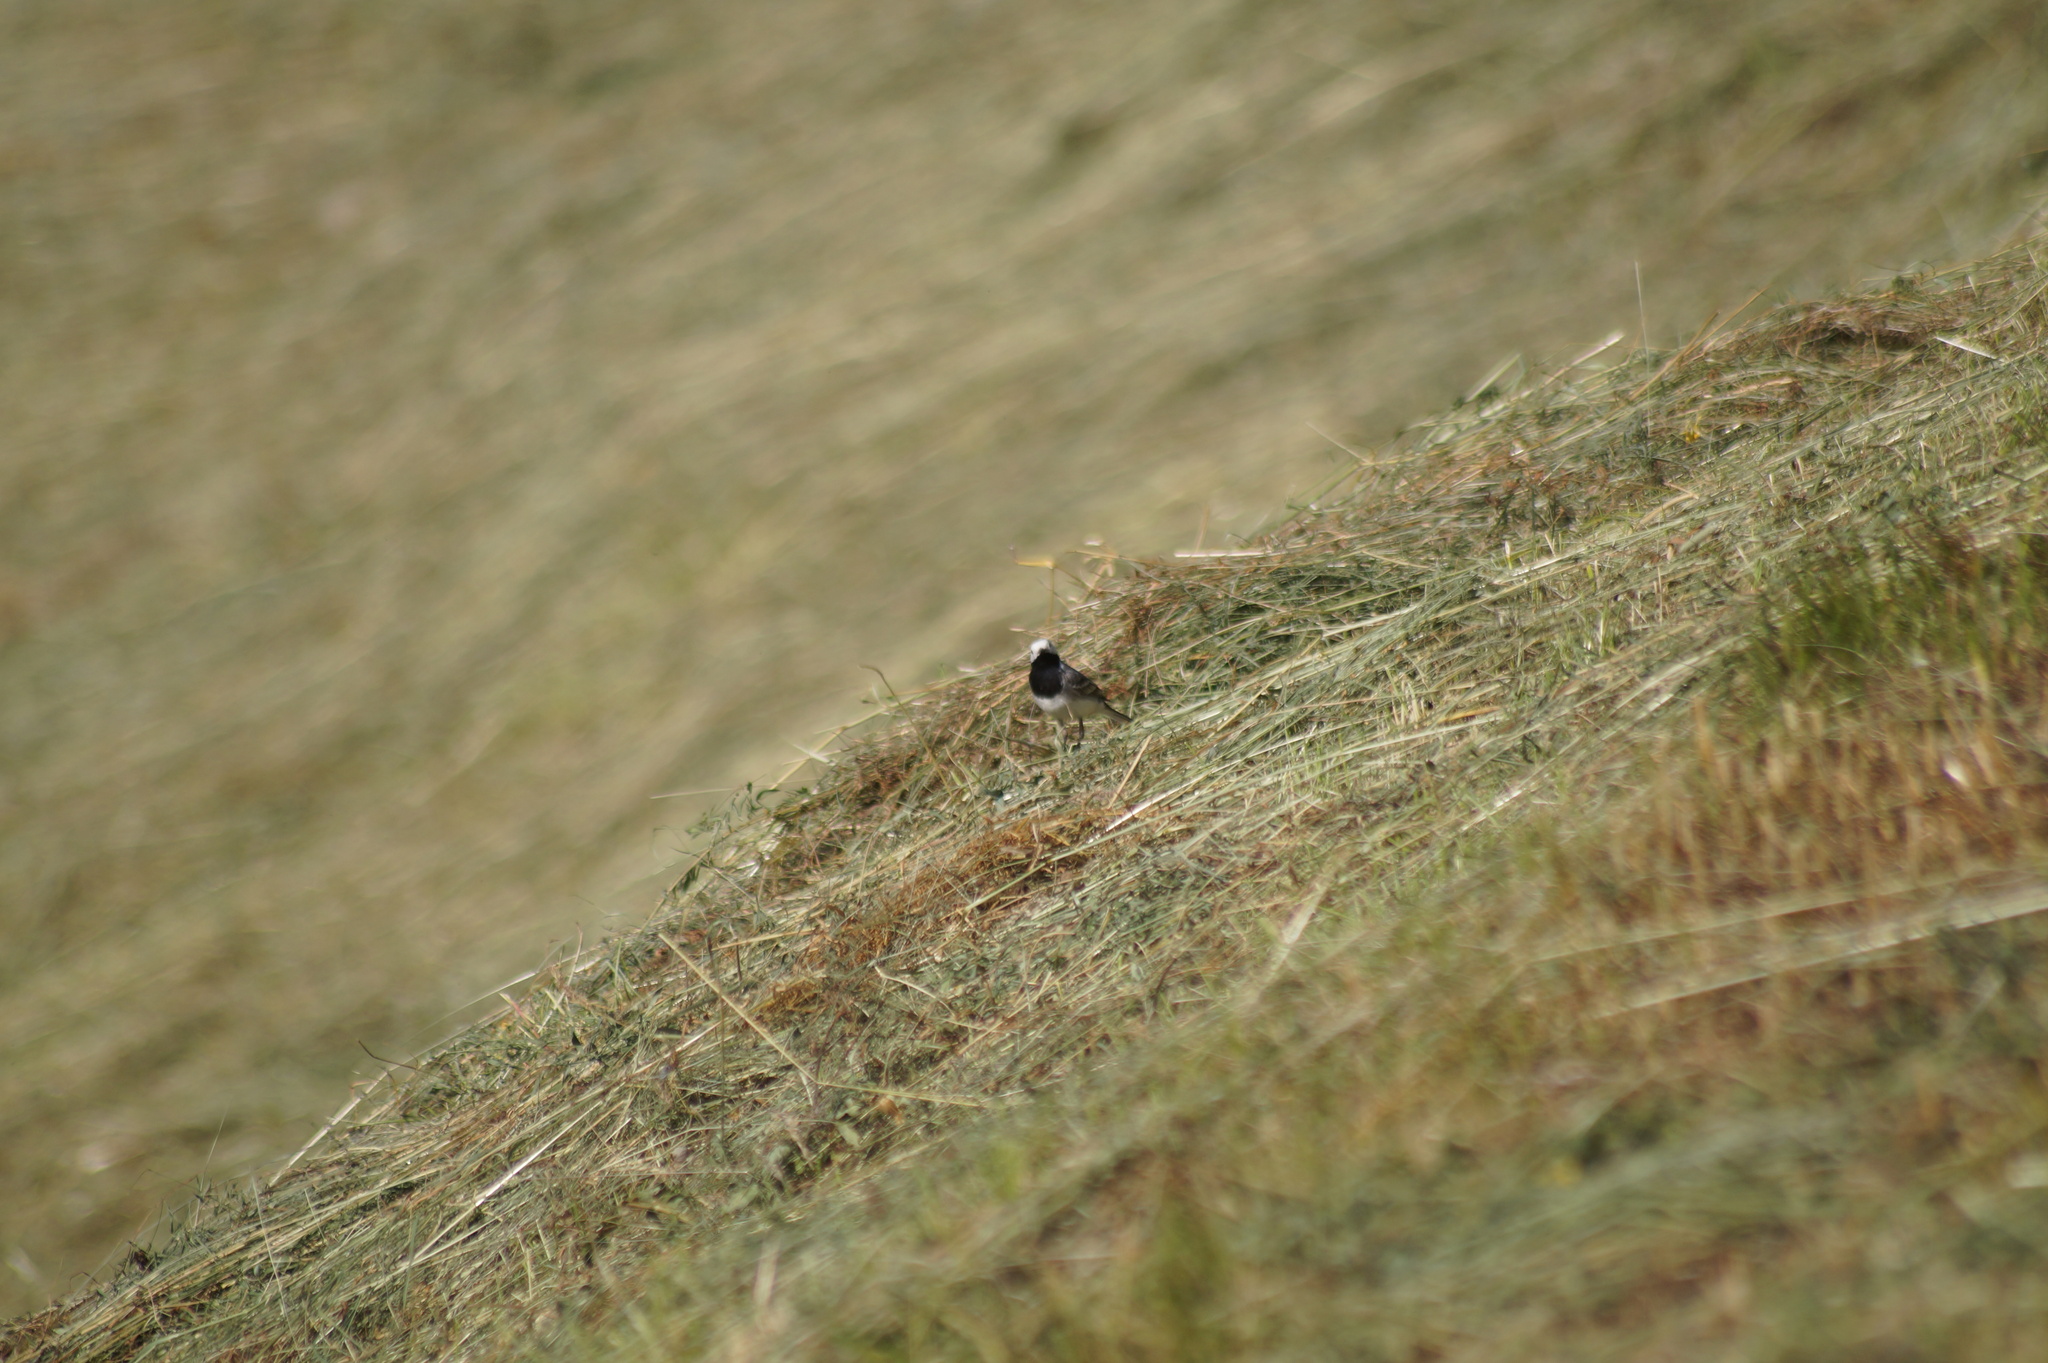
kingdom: Animalia
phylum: Chordata
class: Aves
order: Passeriformes
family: Motacillidae
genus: Motacilla
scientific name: Motacilla alba
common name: White wagtail
